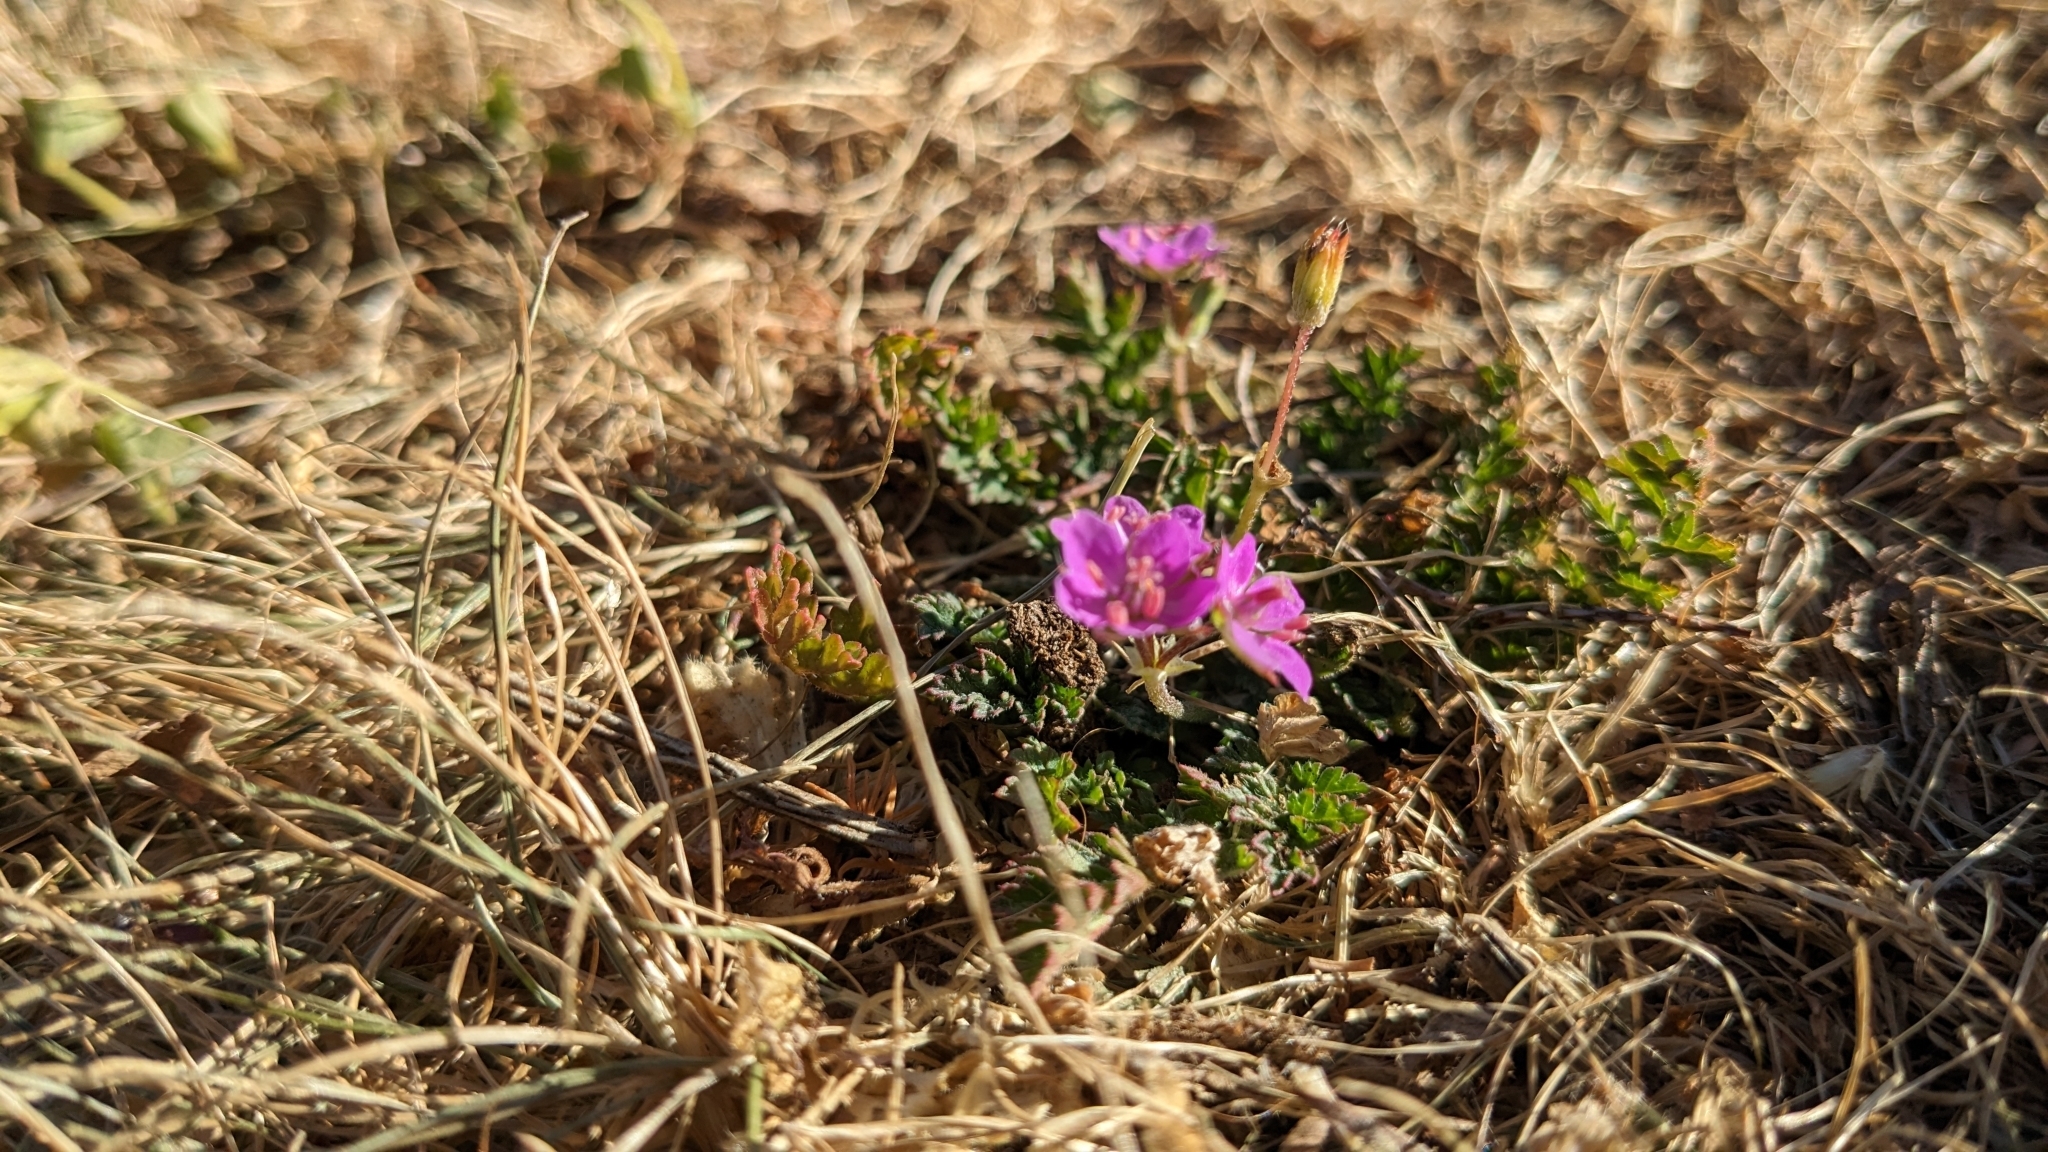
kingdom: Plantae
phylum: Tracheophyta
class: Magnoliopsida
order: Geraniales
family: Geraniaceae
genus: Erodium
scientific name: Erodium cicutarium
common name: Common stork's-bill
